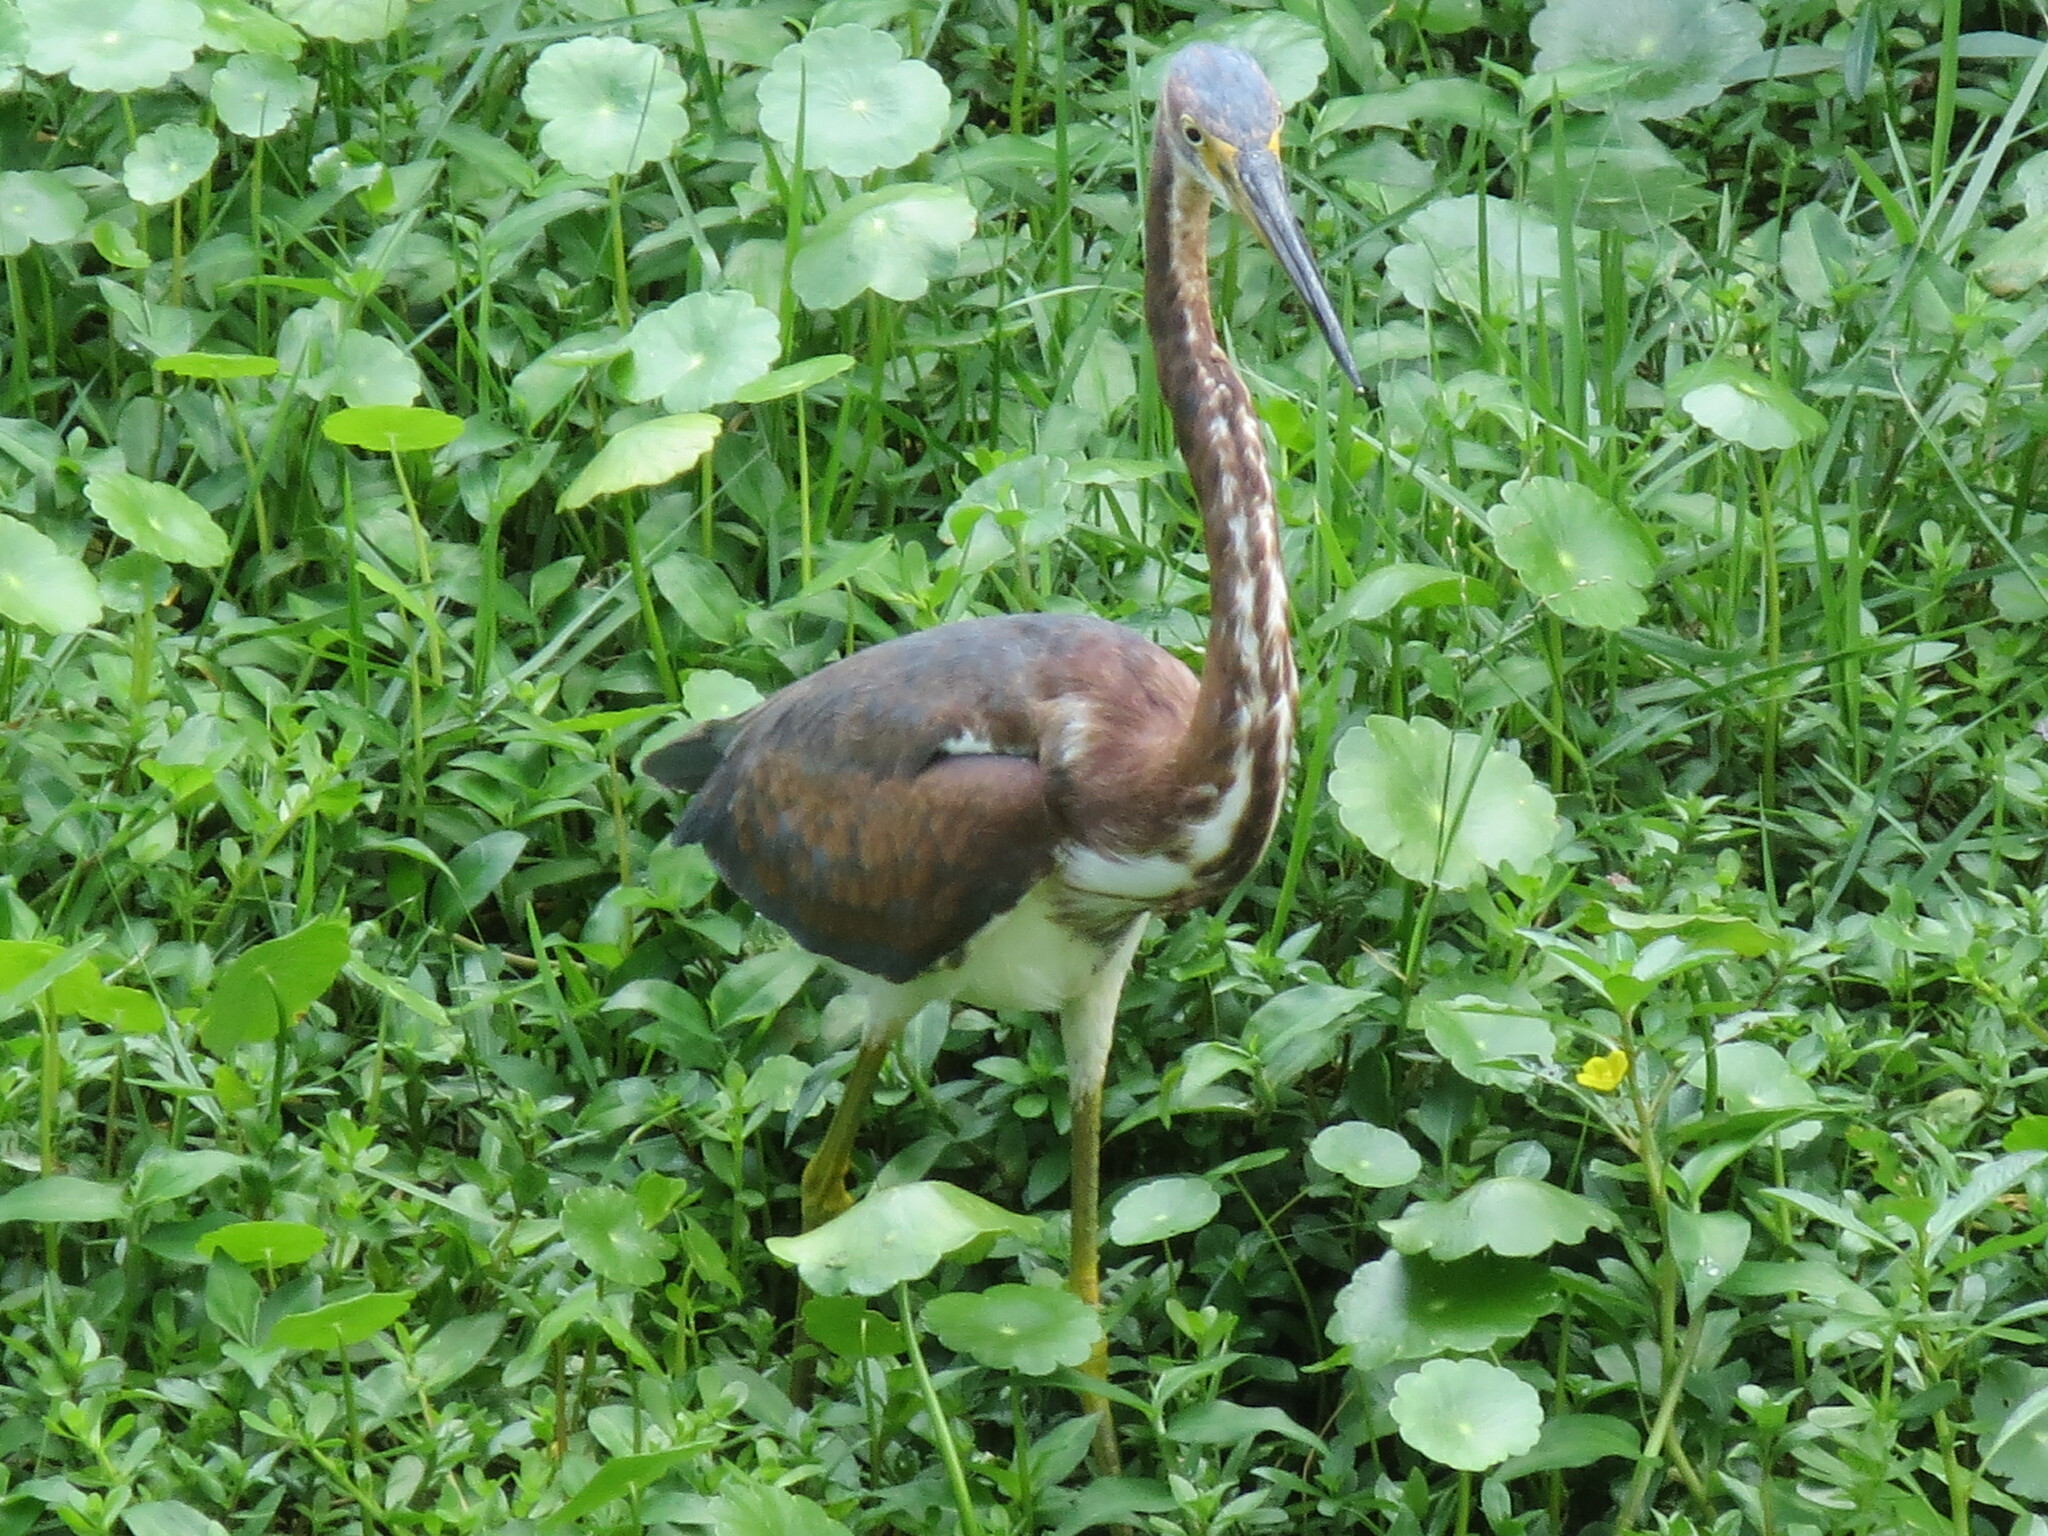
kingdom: Animalia
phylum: Chordata
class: Aves
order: Pelecaniformes
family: Ardeidae
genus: Egretta
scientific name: Egretta tricolor
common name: Tricolored heron
